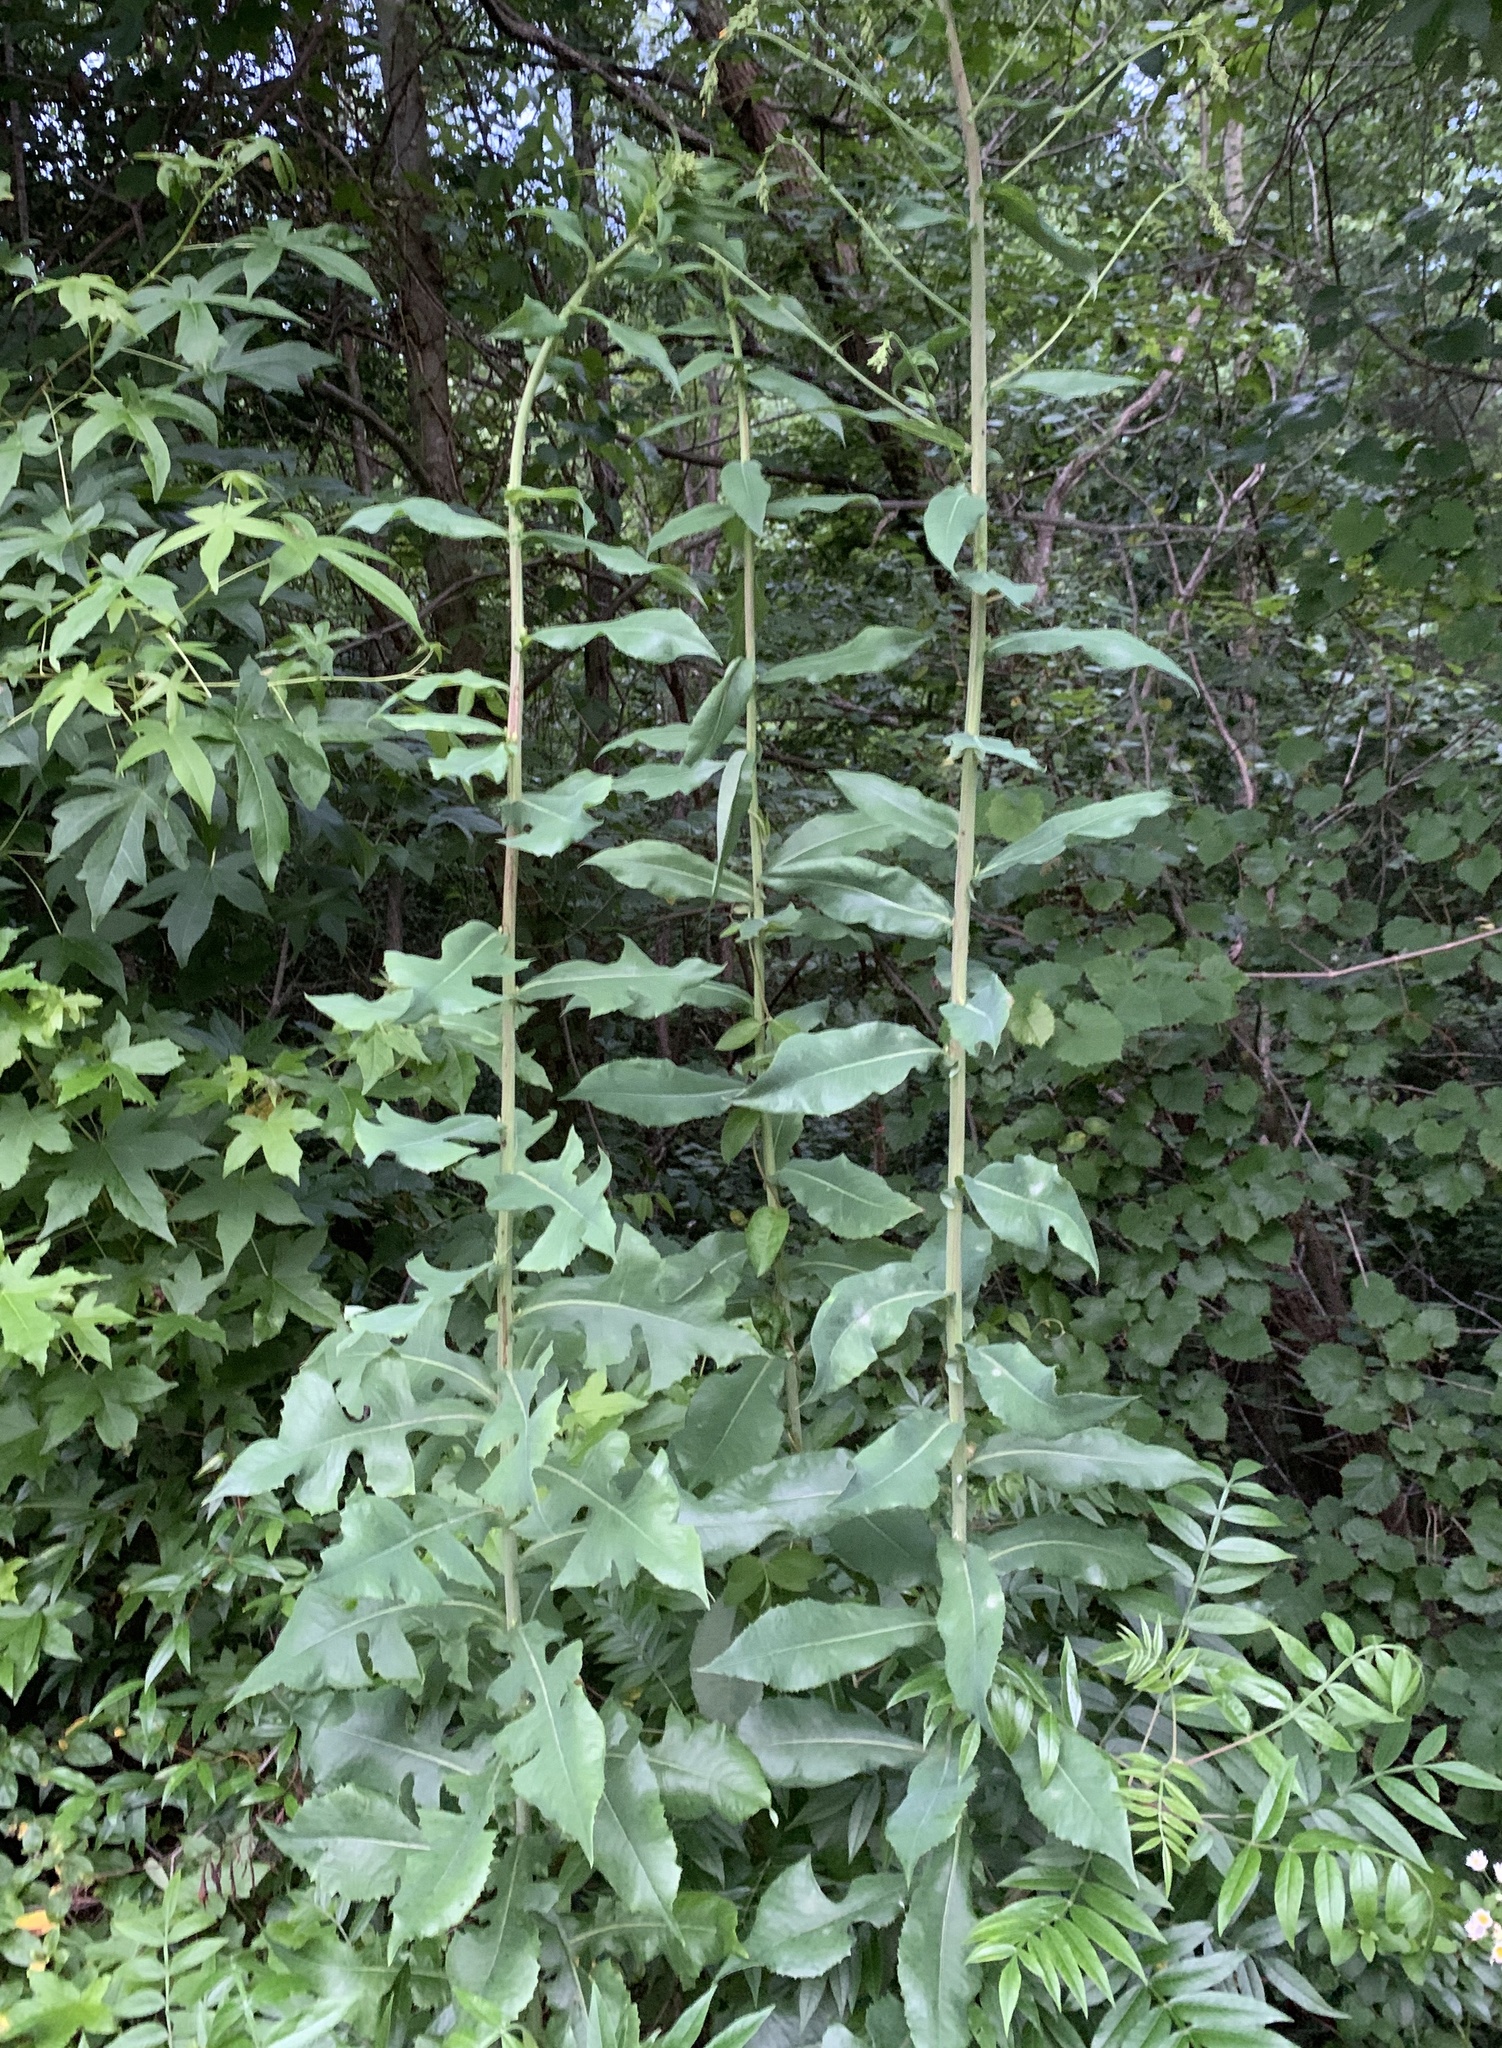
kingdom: Plantae
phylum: Tracheophyta
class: Magnoliopsida
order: Asterales
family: Asteraceae
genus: Lactuca
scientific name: Lactuca canadensis
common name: Canada lettuce
